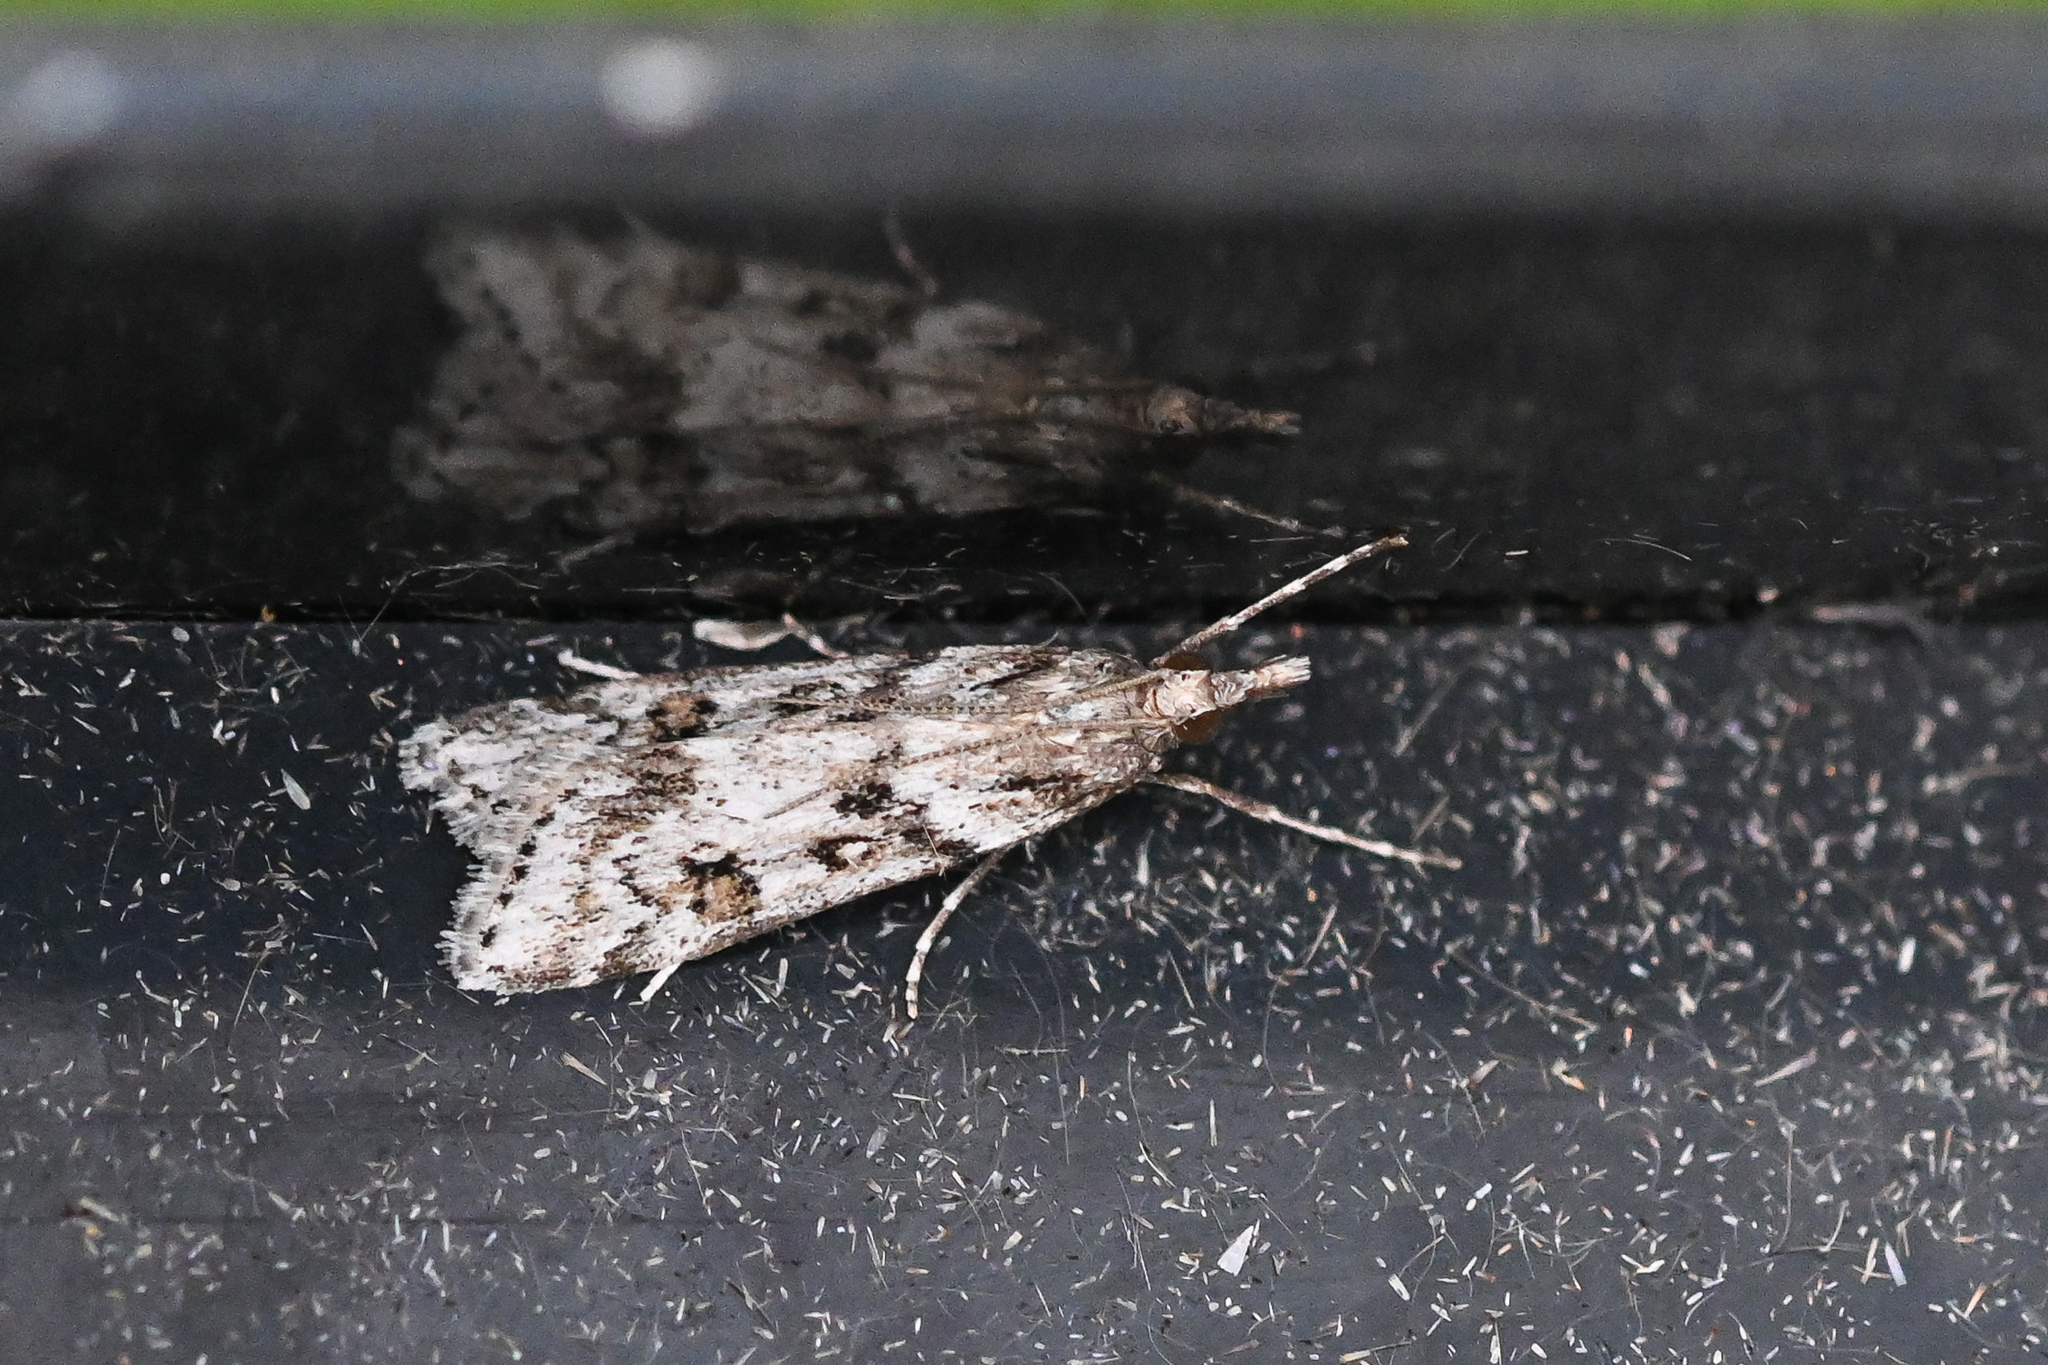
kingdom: Animalia
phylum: Arthropoda
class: Insecta
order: Lepidoptera
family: Crambidae
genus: Eudonia
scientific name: Eudonia angustea
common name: Narrow-winged grey
